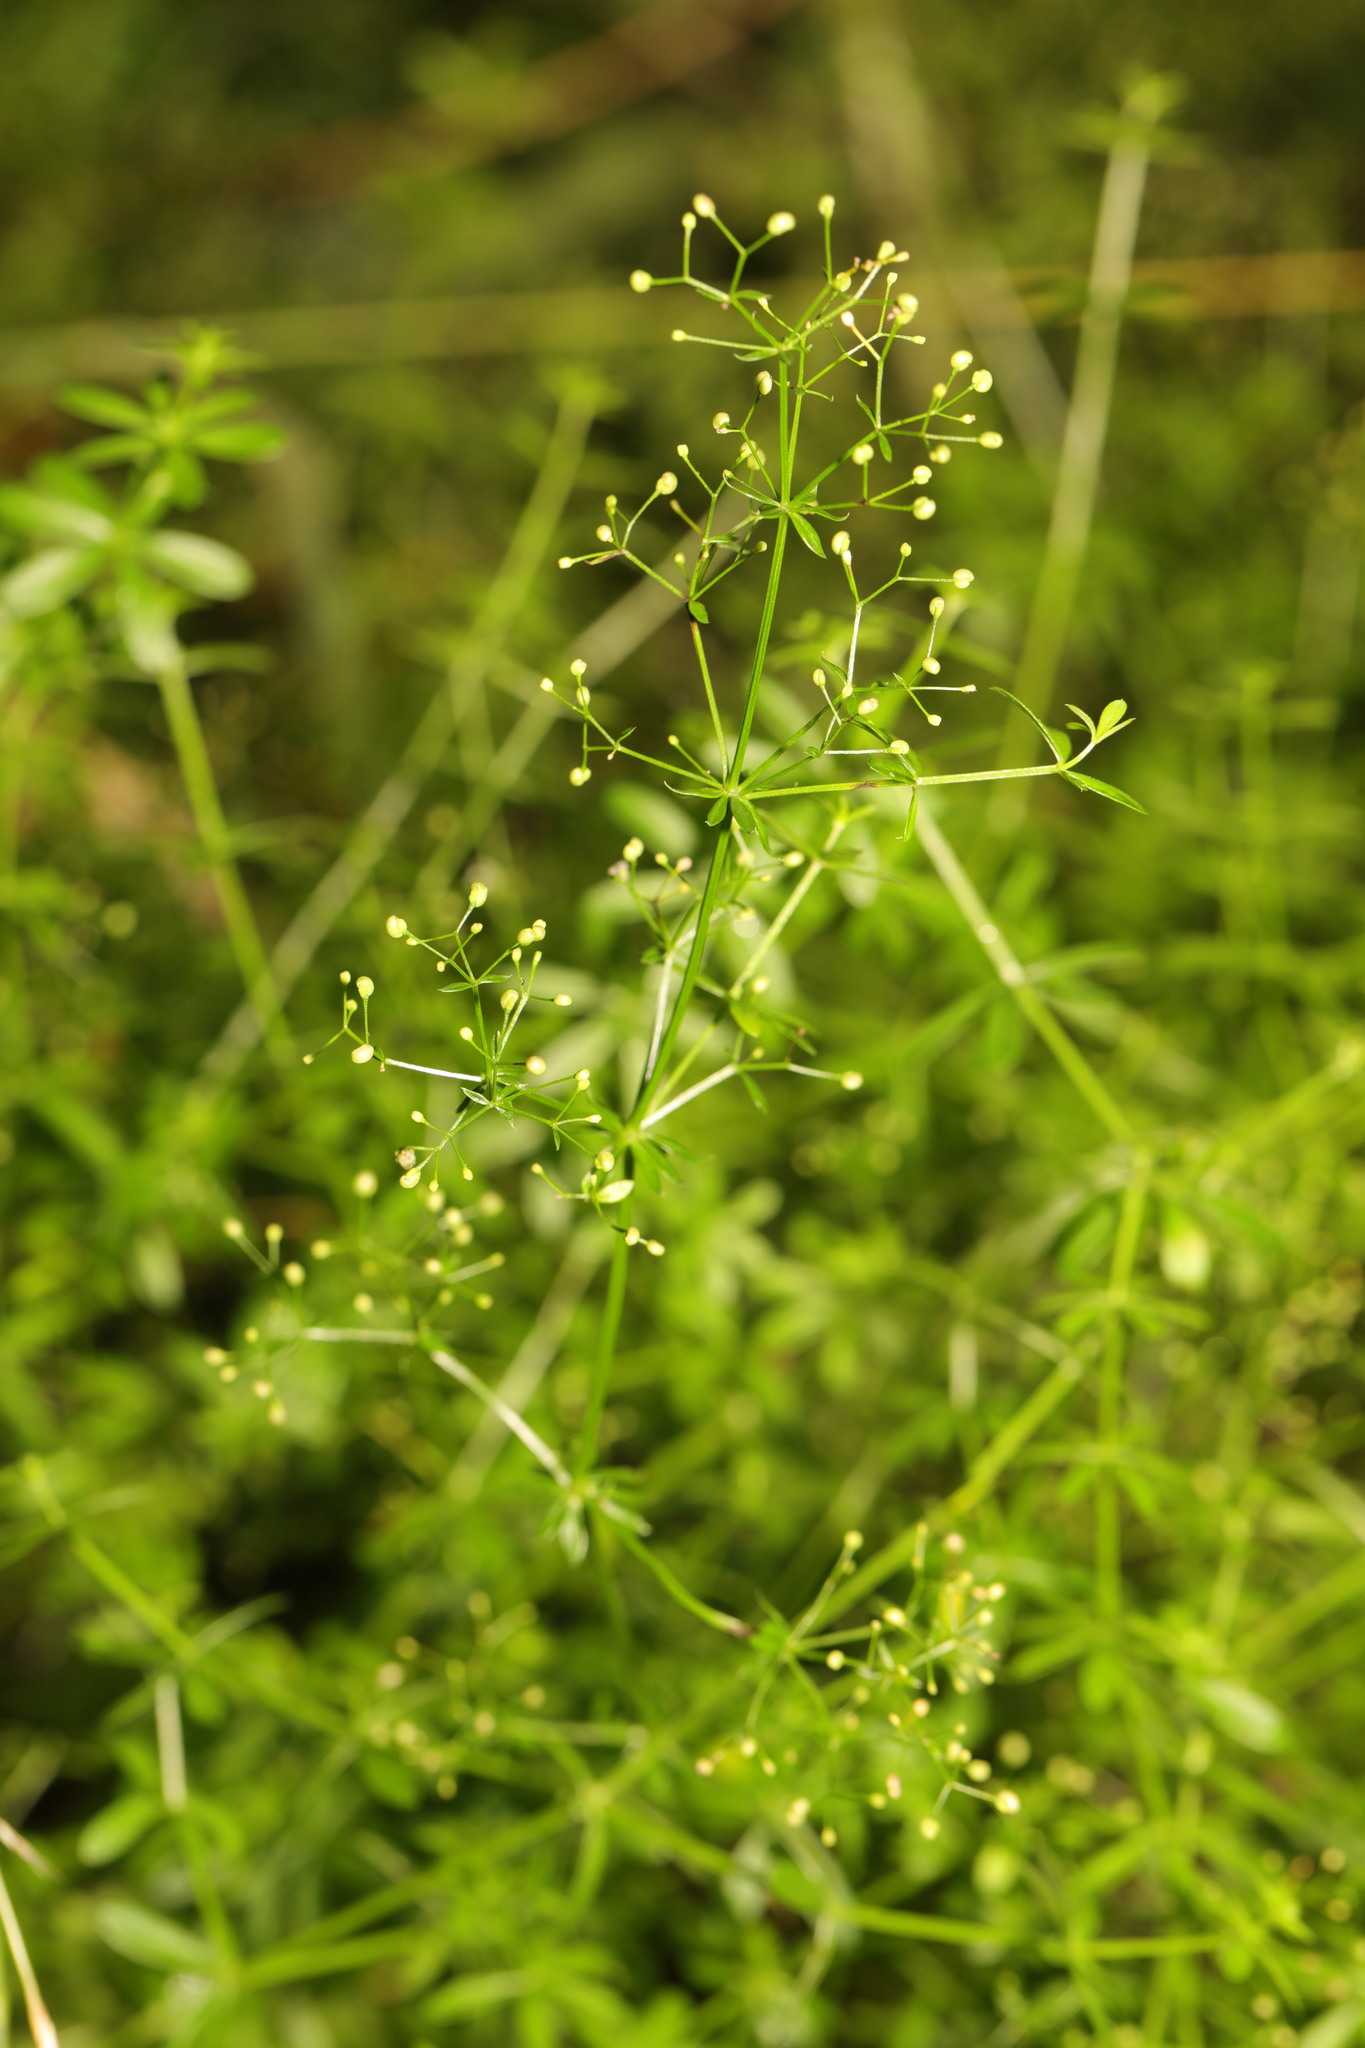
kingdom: Plantae
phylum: Tracheophyta
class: Magnoliopsida
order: Gentianales
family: Rubiaceae
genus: Galium
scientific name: Galium mollugo
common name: Hedge bedstraw
